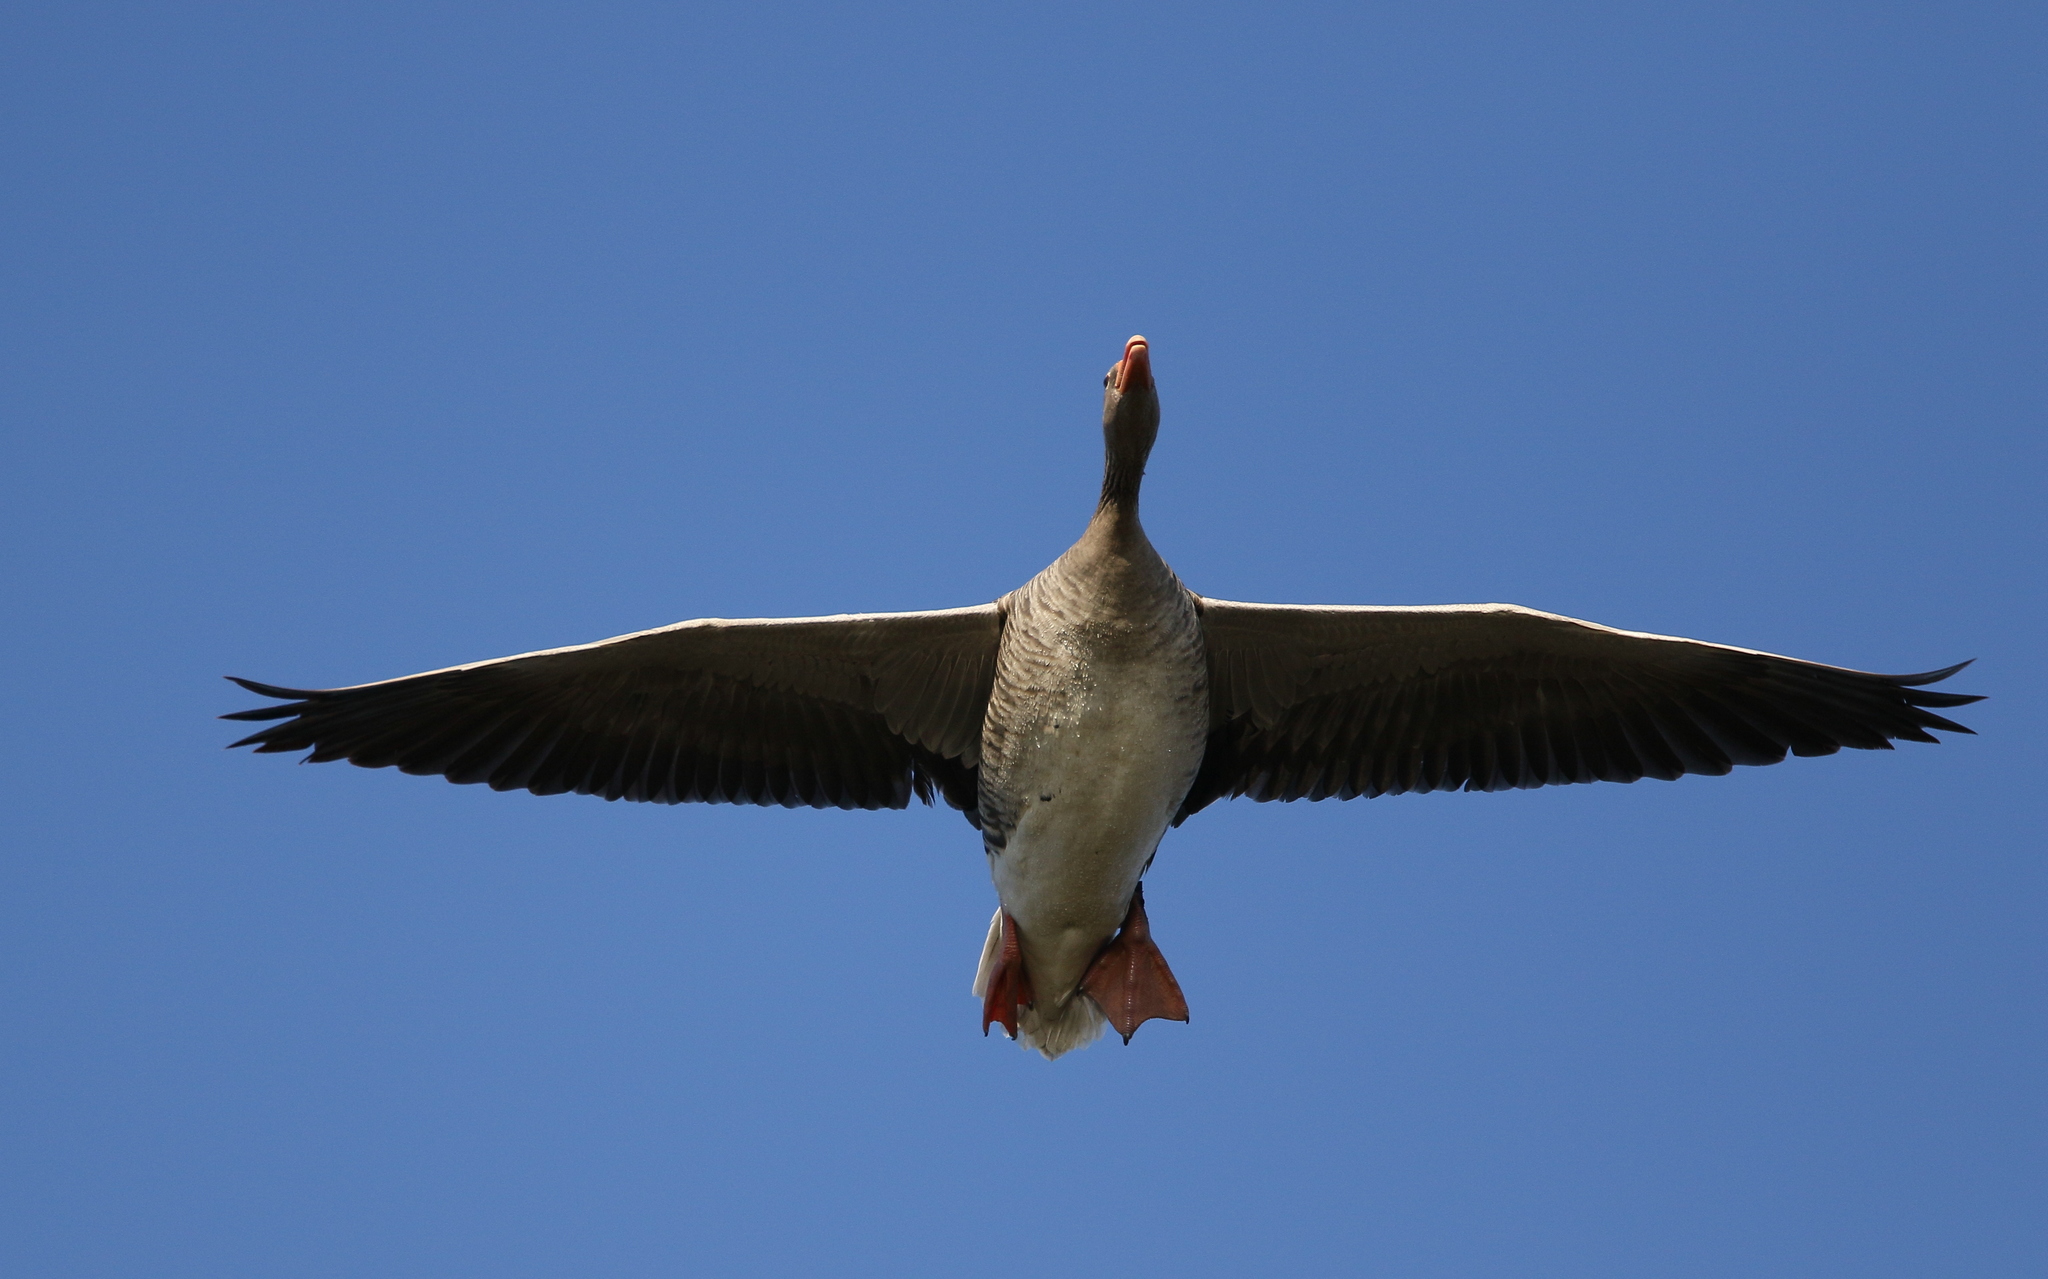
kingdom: Animalia
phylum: Chordata
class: Aves
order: Anseriformes
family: Anatidae
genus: Anser
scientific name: Anser anser
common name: Greylag goose
